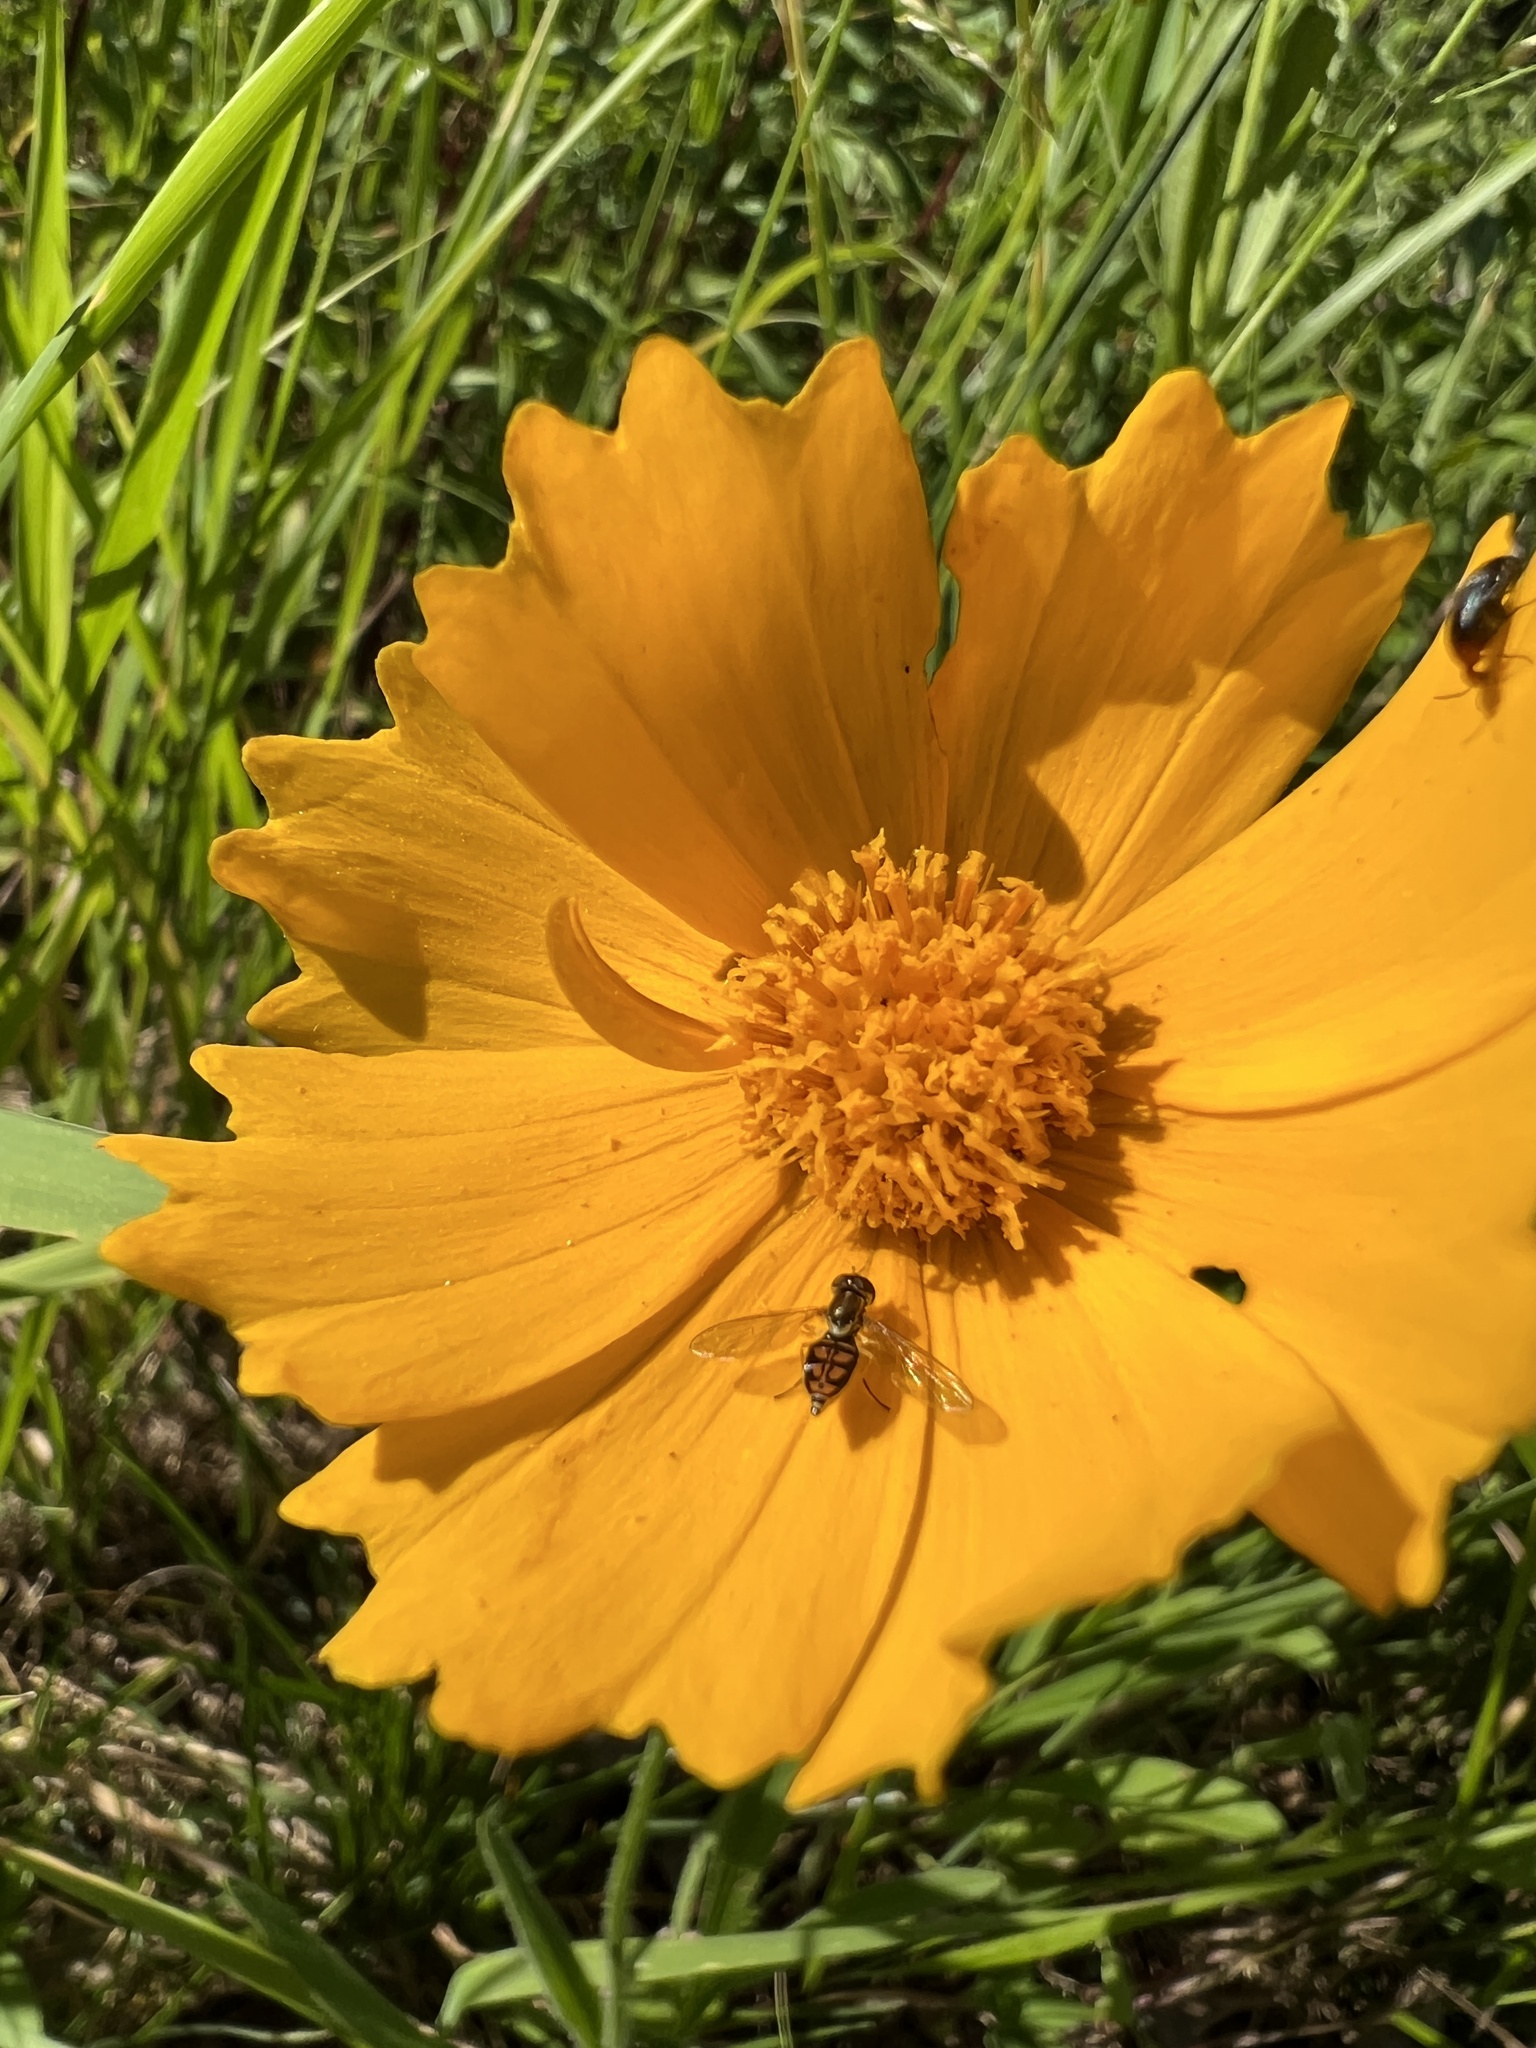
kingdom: Animalia
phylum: Arthropoda
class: Insecta
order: Diptera
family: Syrphidae
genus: Toxomerus
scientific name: Toxomerus marginatus
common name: Syrphid fly
